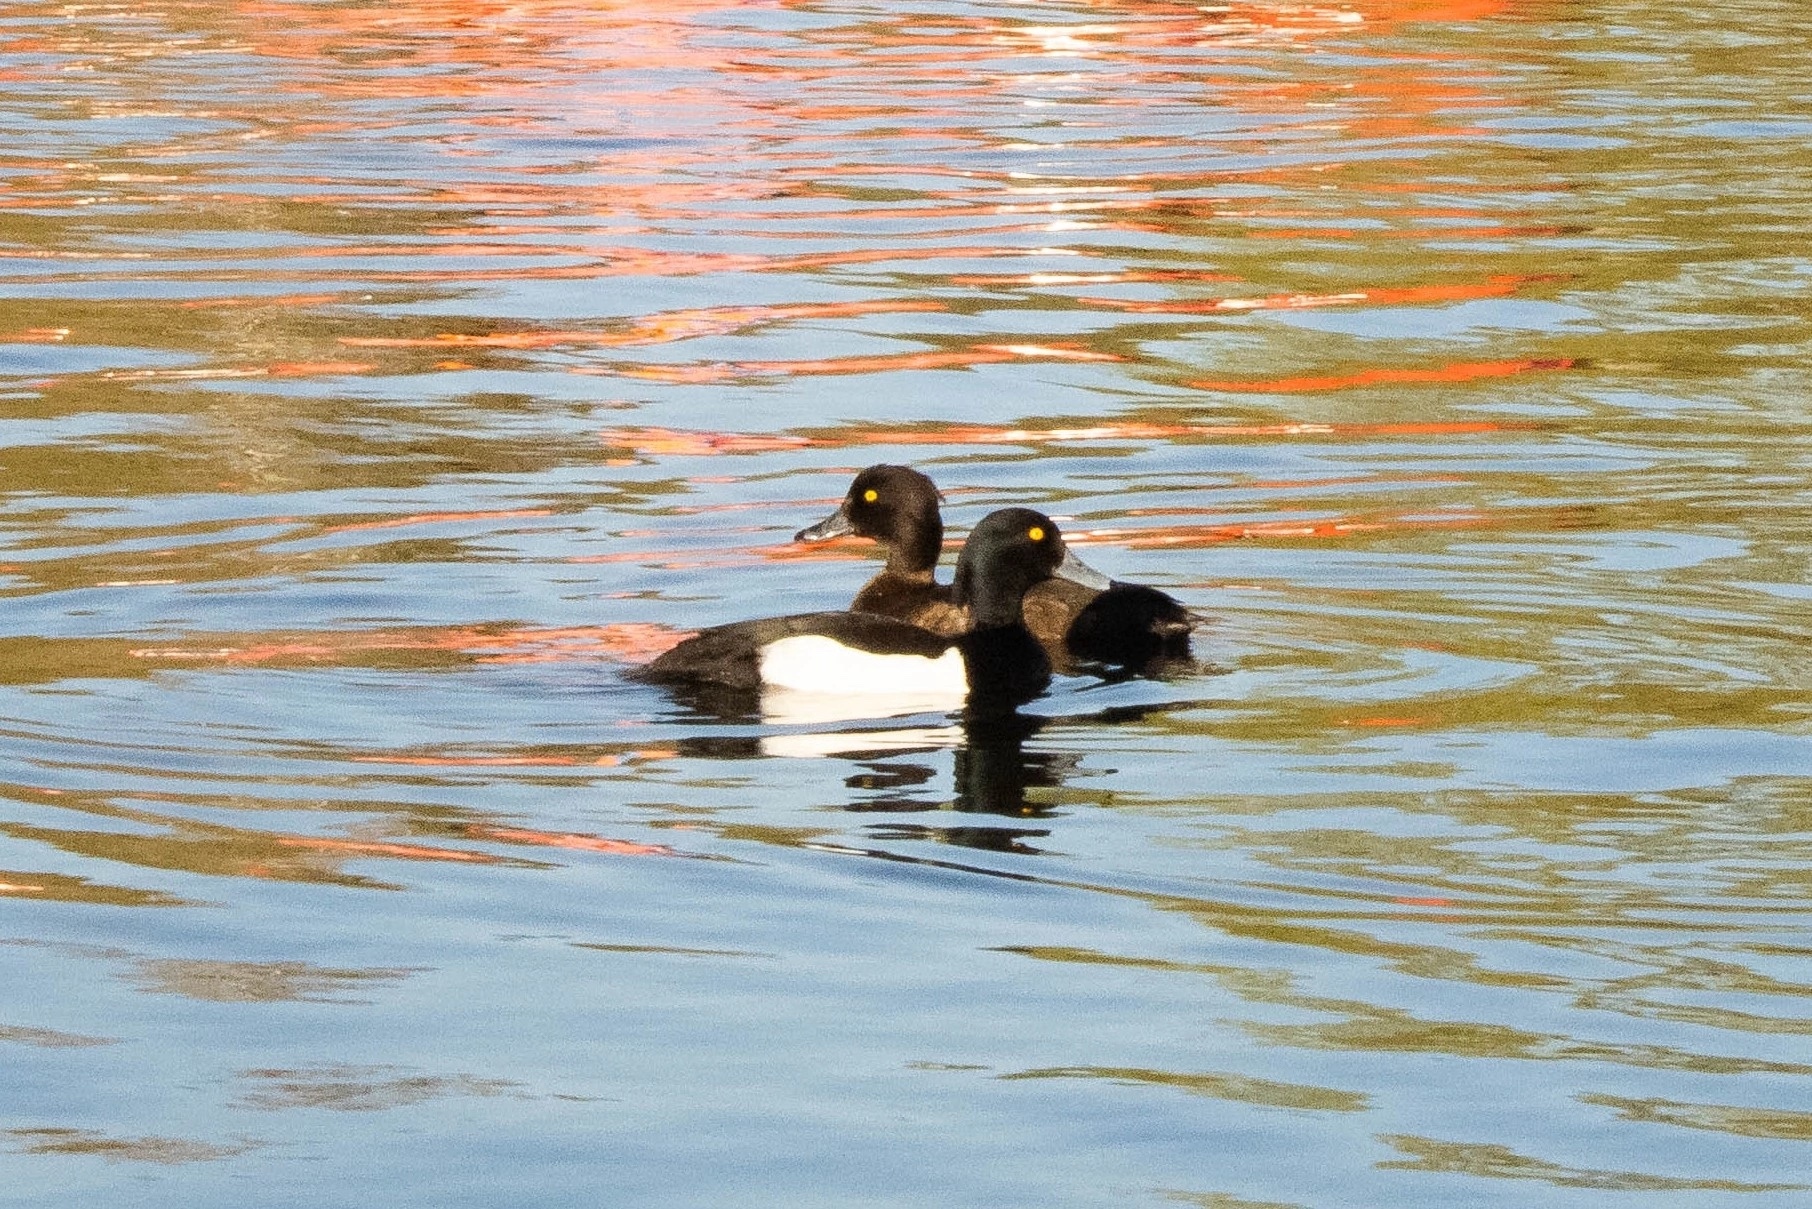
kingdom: Animalia
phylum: Chordata
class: Aves
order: Anseriformes
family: Anatidae
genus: Aythya
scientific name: Aythya fuligula
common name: Tufted duck
